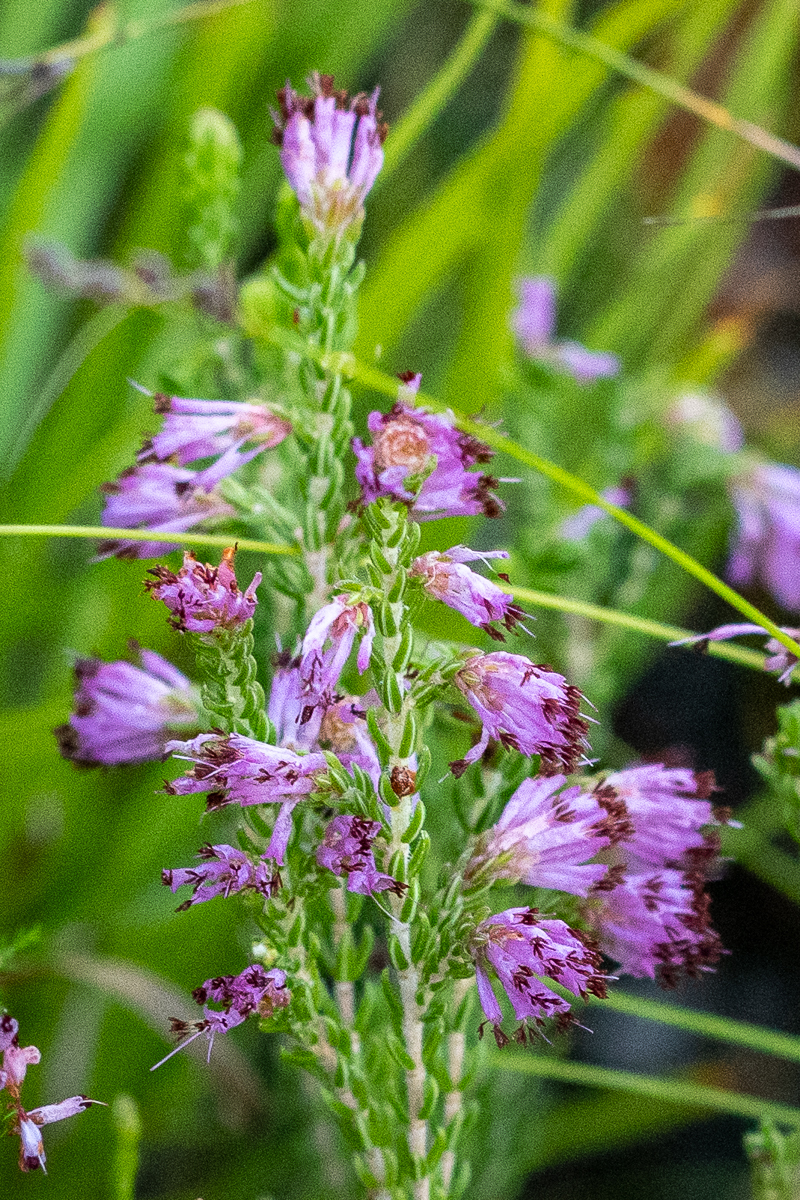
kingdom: Plantae
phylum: Tracheophyta
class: Magnoliopsida
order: Ericales
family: Ericaceae
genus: Erica
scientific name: Erica labialis
